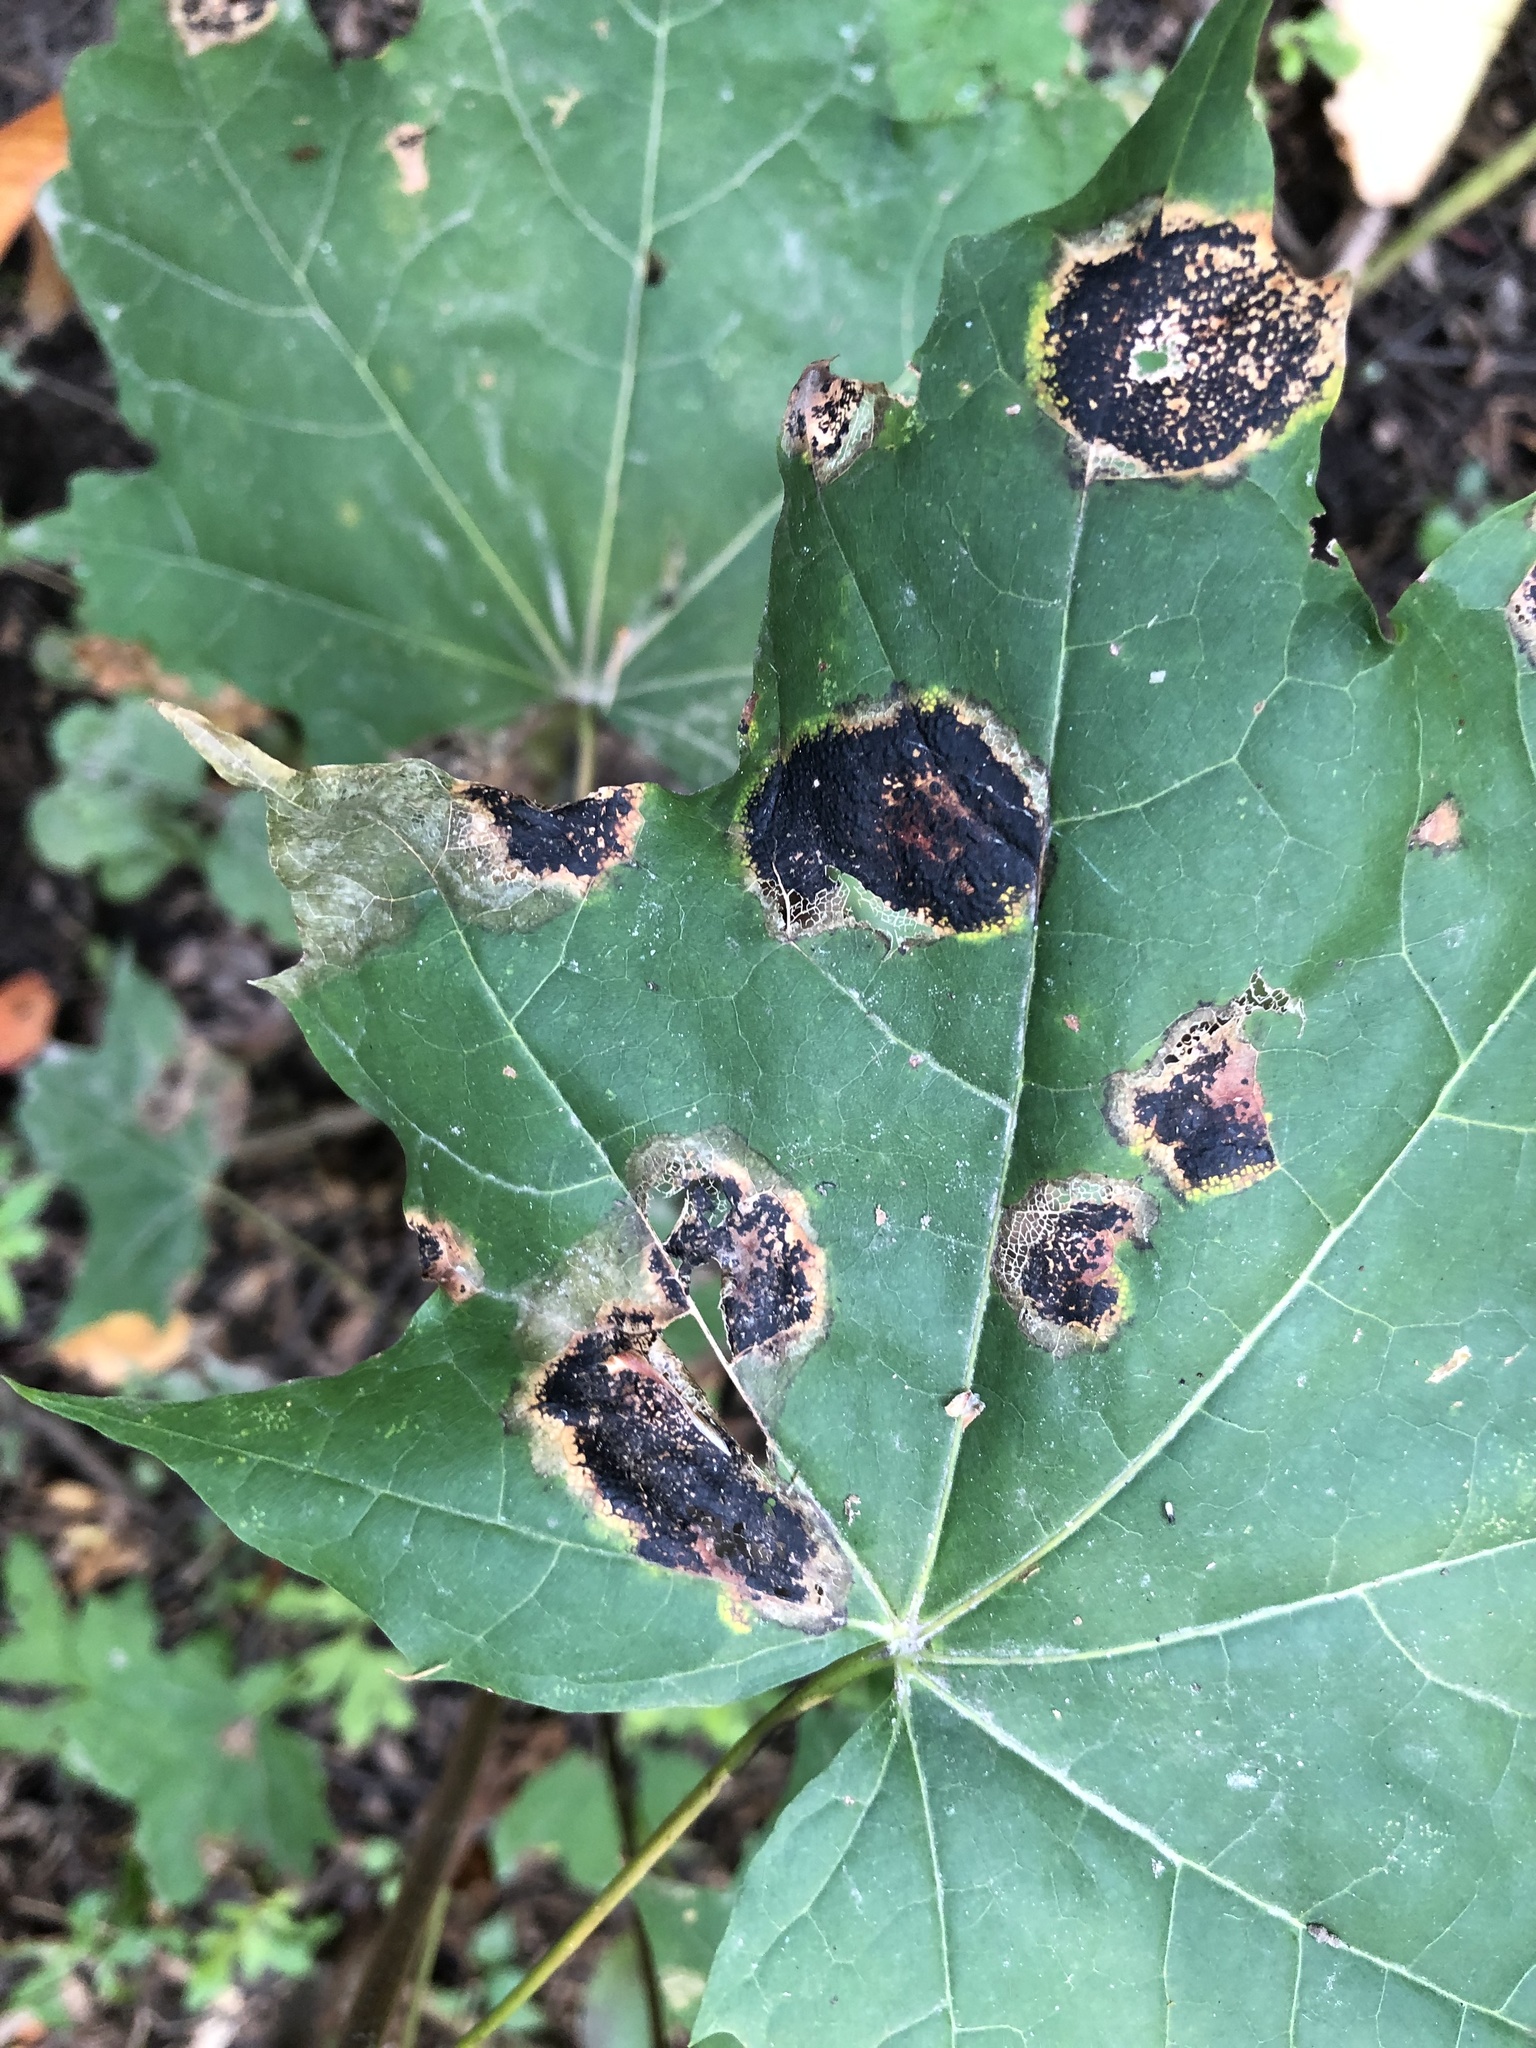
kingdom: Fungi
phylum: Ascomycota
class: Leotiomycetes
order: Rhytismatales
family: Rhytismataceae
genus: Rhytisma
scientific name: Rhytisma acerinum
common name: European tar spot
